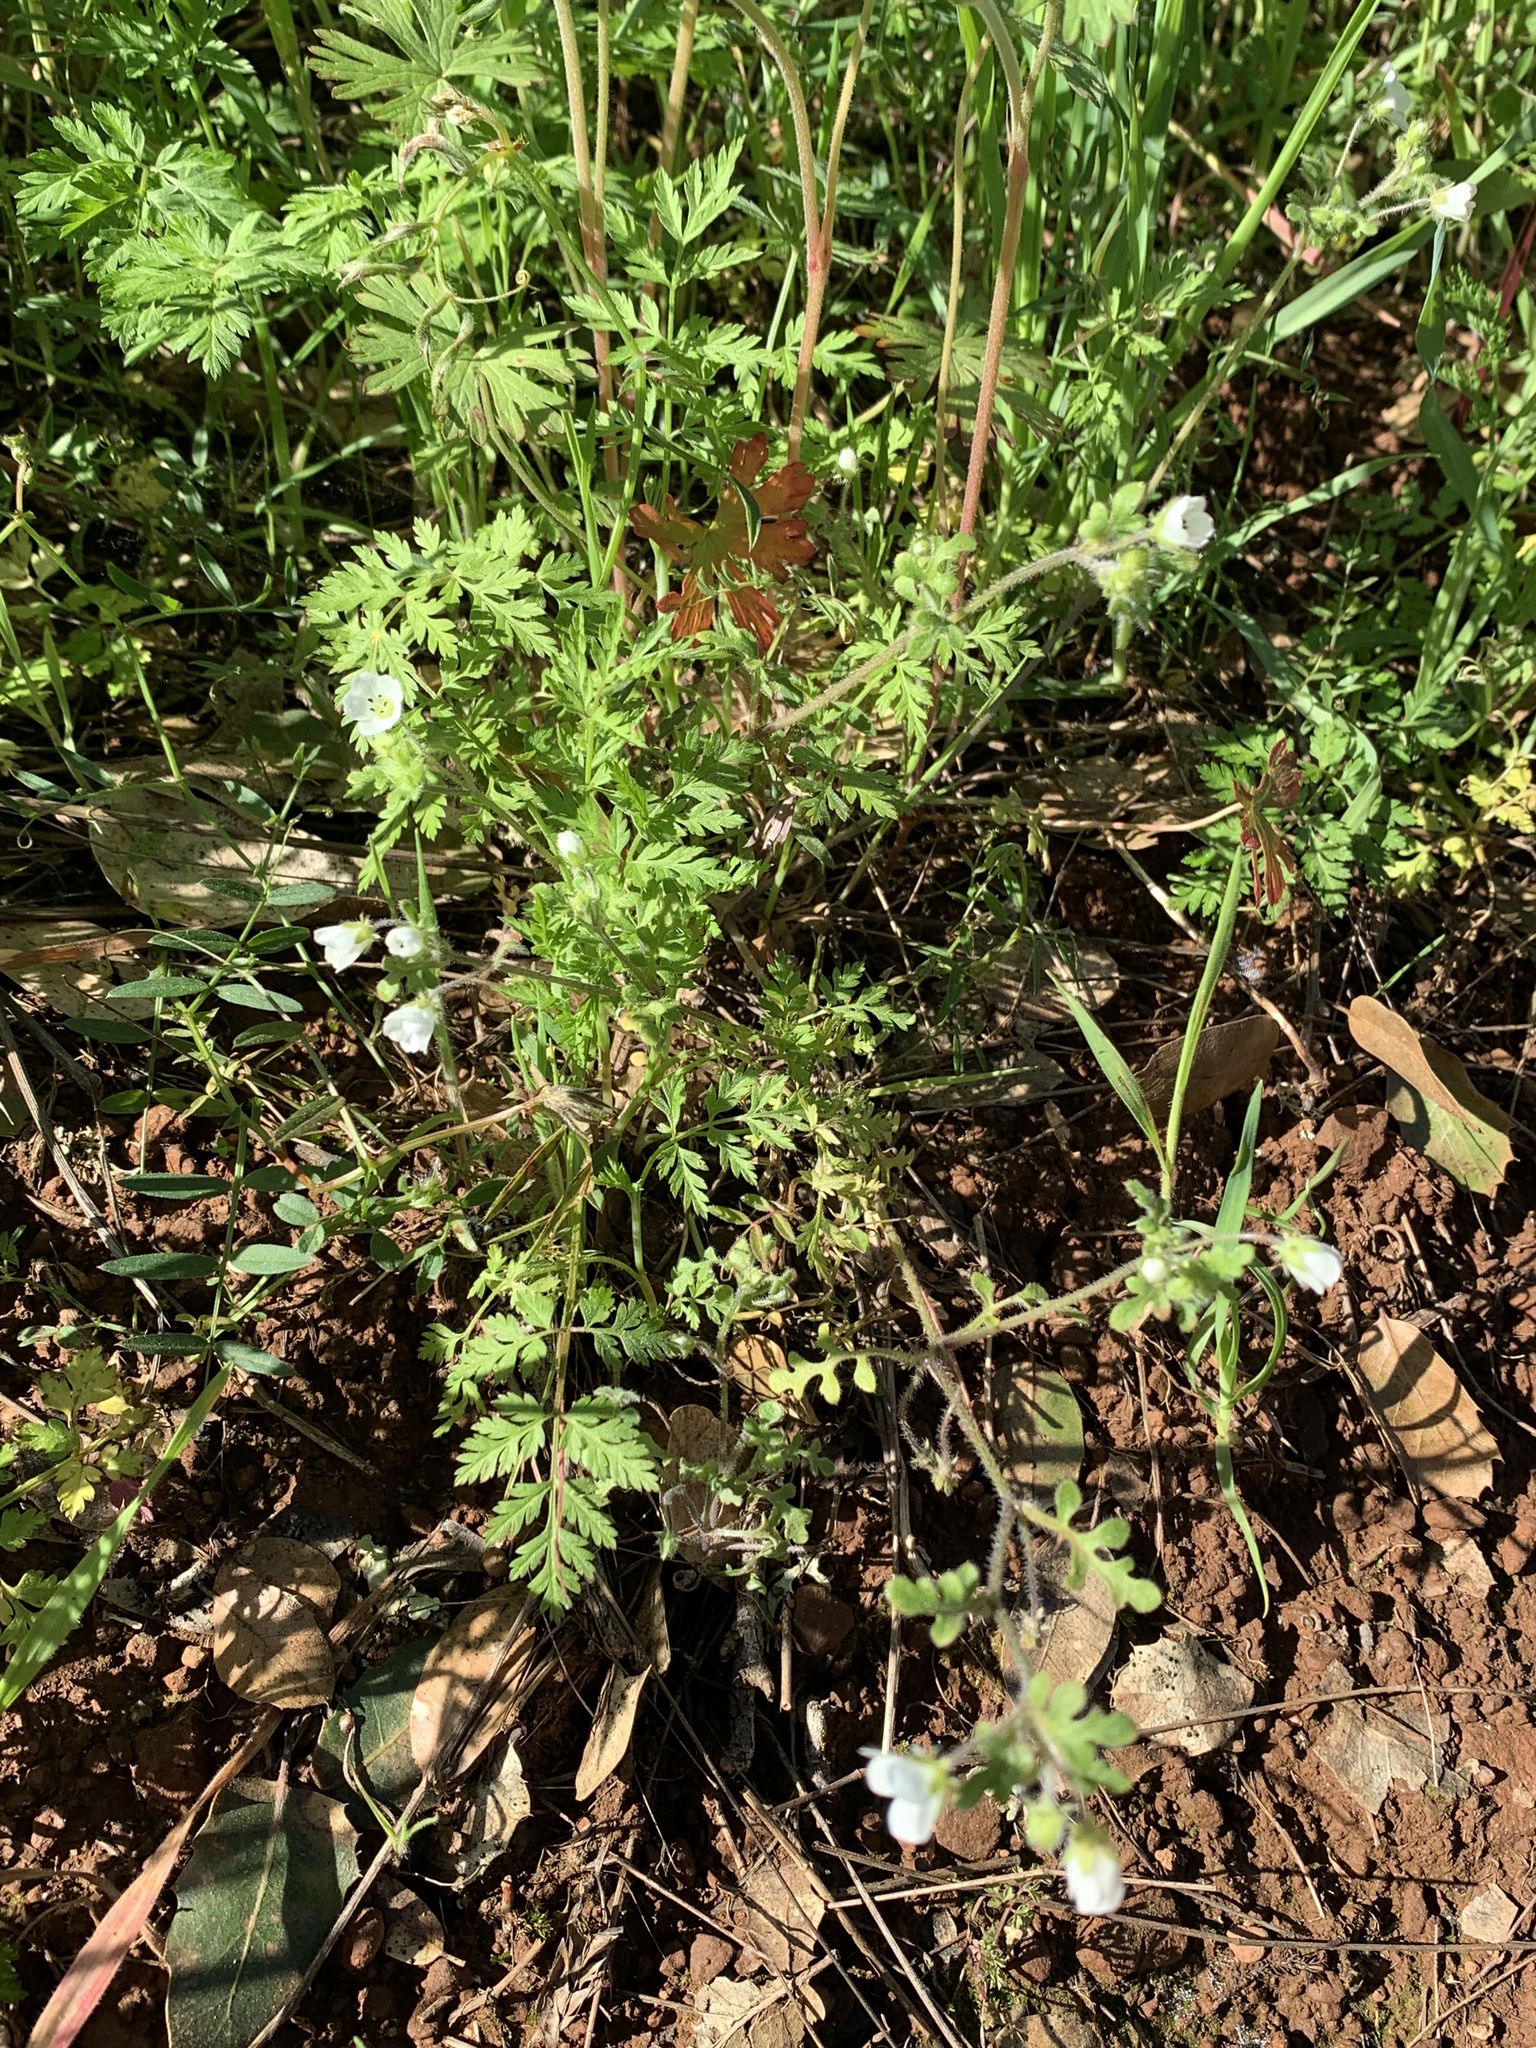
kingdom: Plantae
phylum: Tracheophyta
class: Magnoliopsida
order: Boraginales
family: Hydrophyllaceae
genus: Nemophila
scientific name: Nemophila heterophylla
